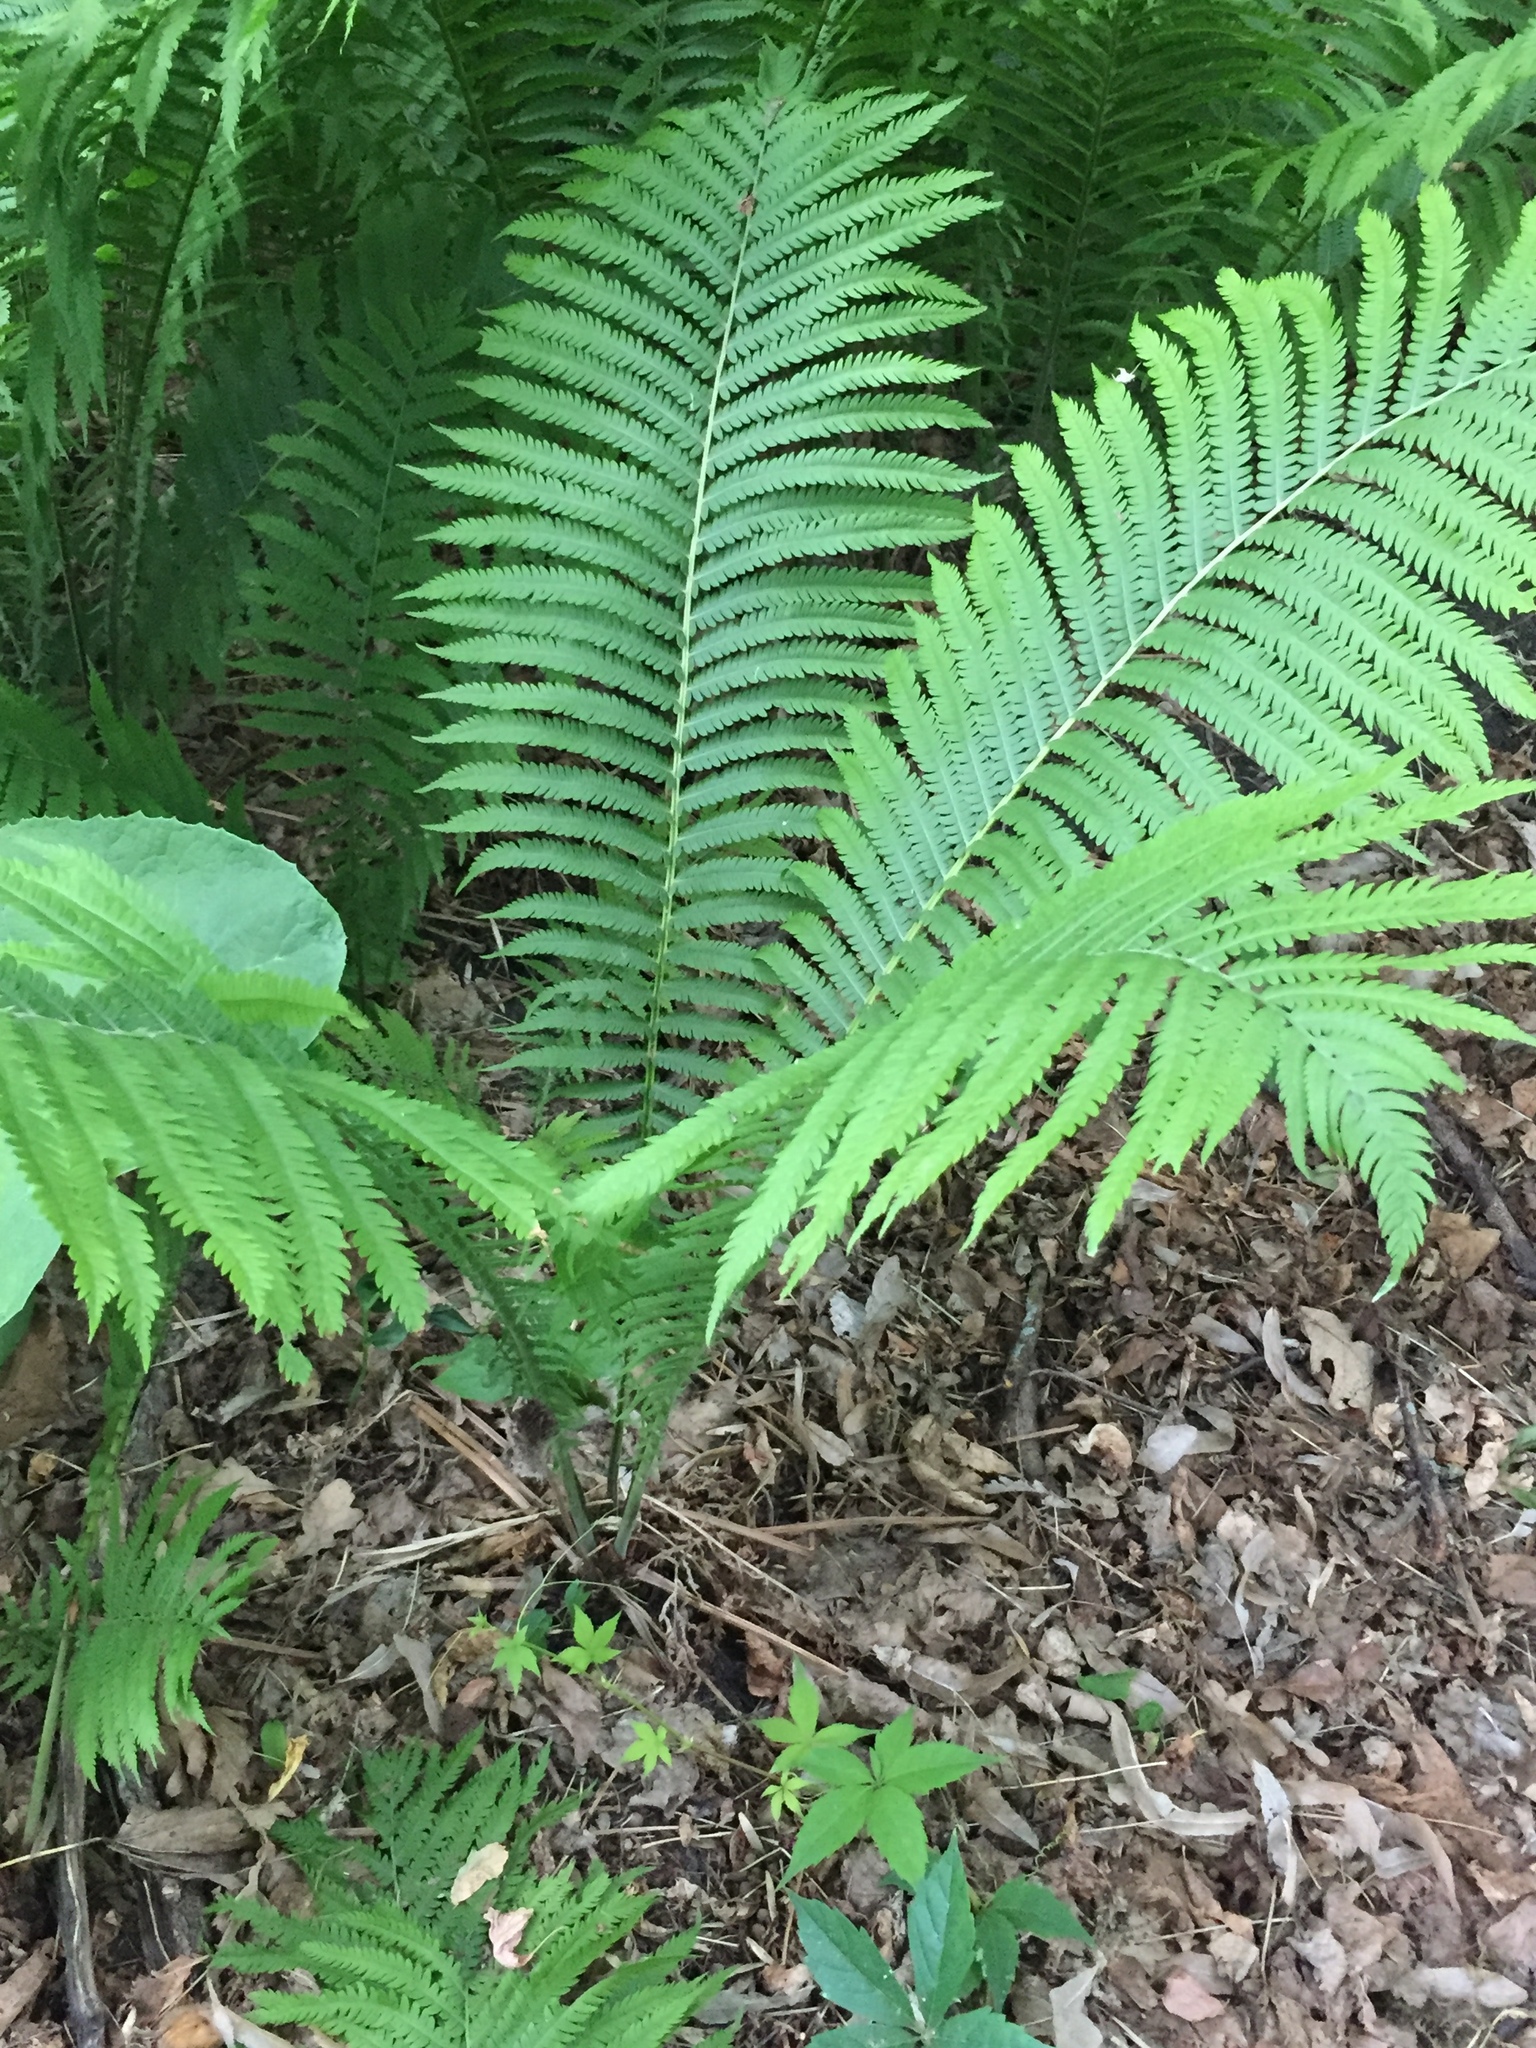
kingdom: Plantae
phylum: Tracheophyta
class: Polypodiopsida
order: Polypodiales
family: Onocleaceae
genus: Matteuccia
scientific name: Matteuccia struthiopteris
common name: Ostrich fern
